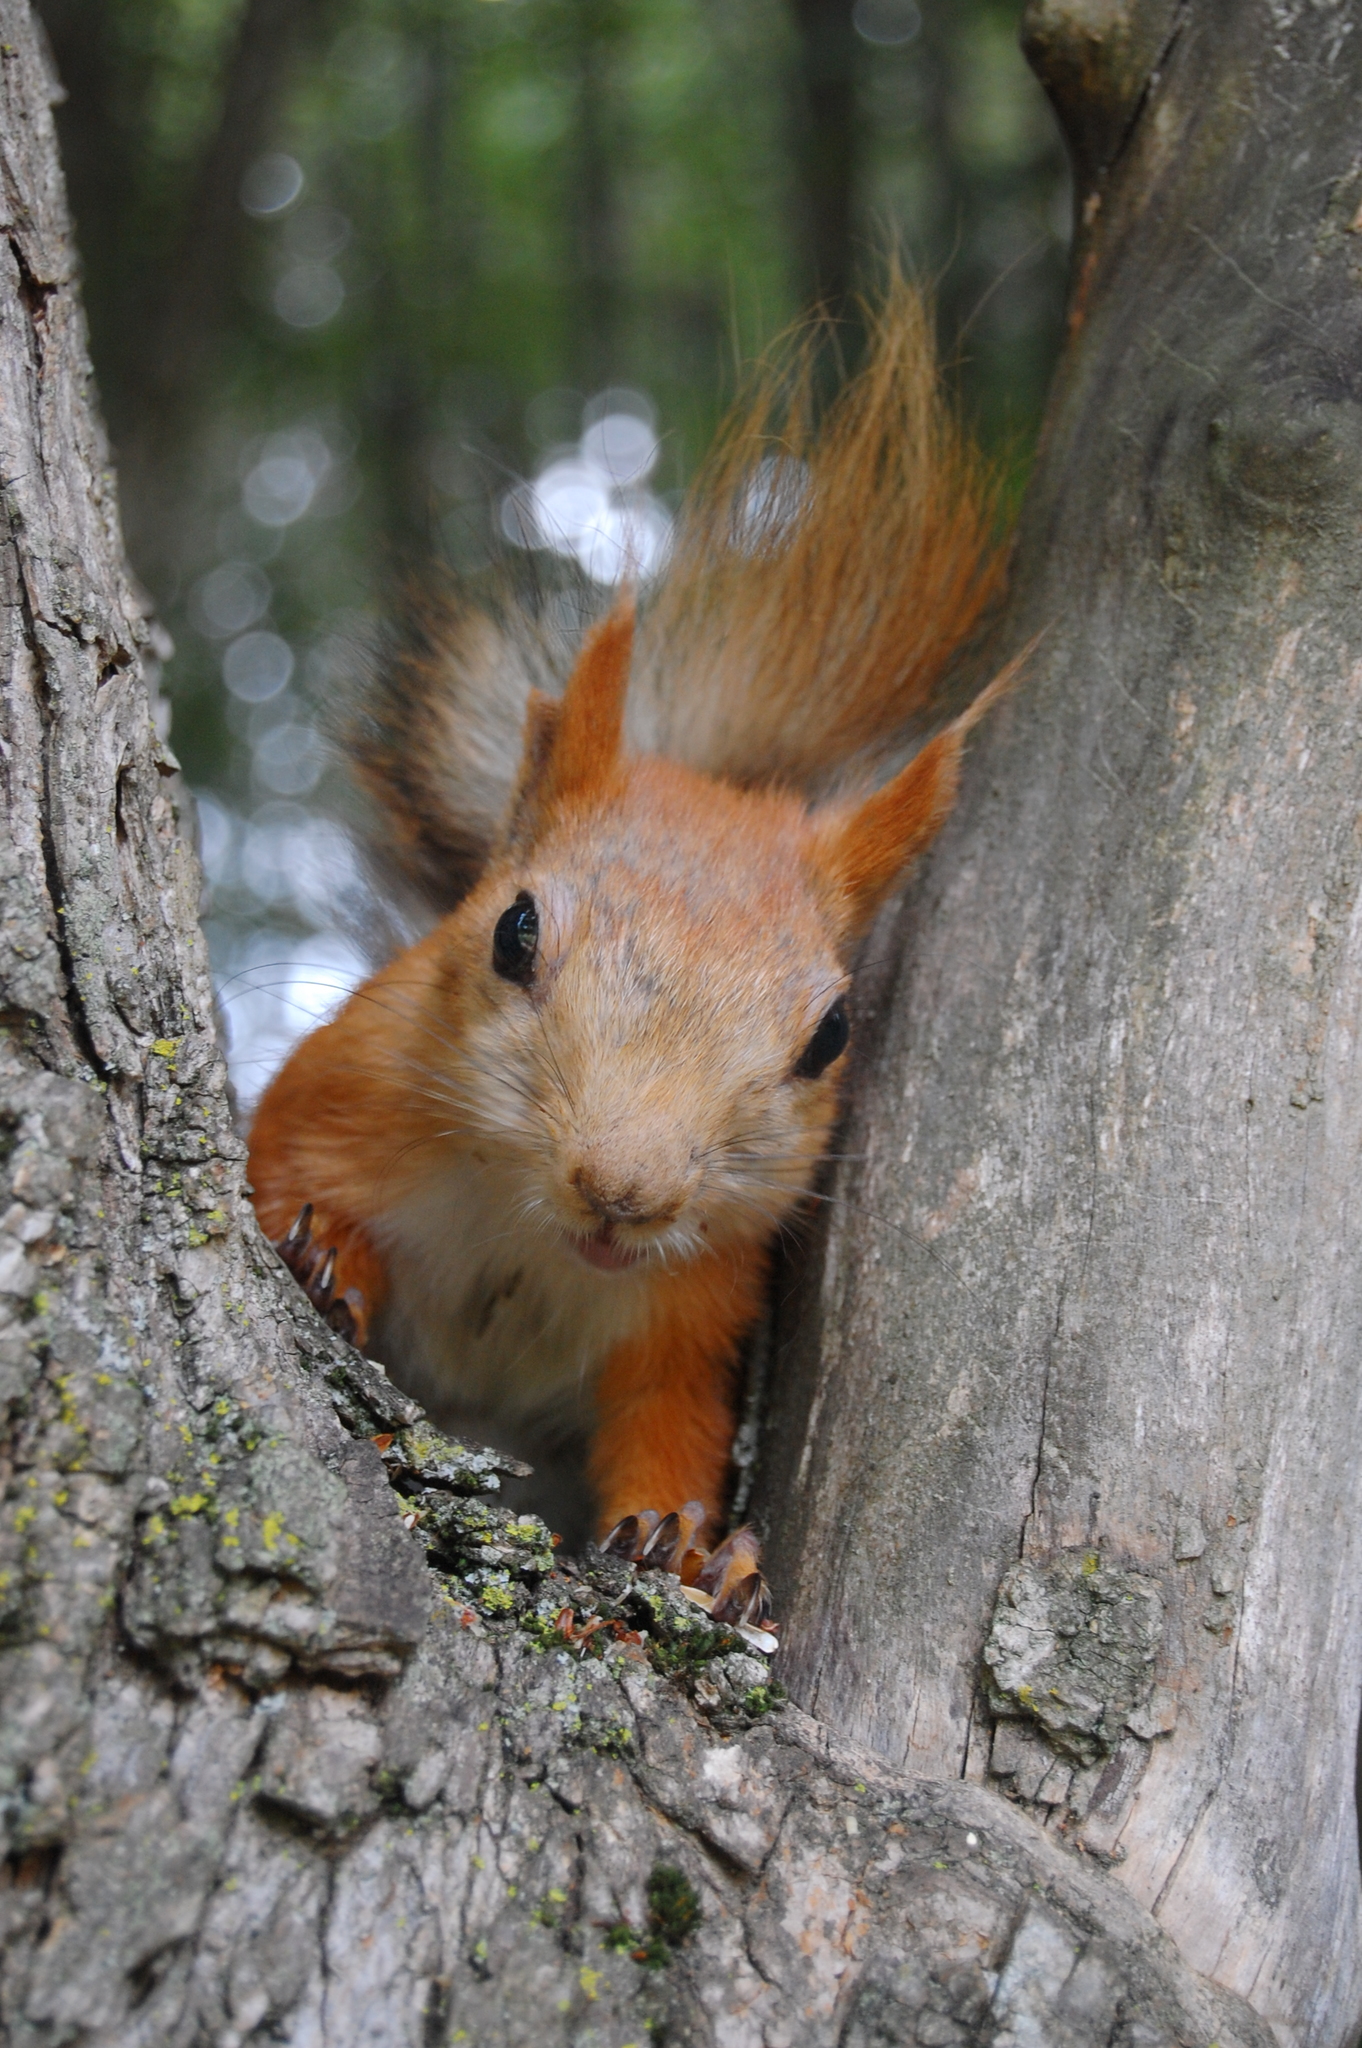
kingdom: Animalia
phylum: Chordata
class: Mammalia
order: Rodentia
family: Sciuridae
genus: Sciurus
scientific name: Sciurus vulgaris
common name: Eurasian red squirrel
